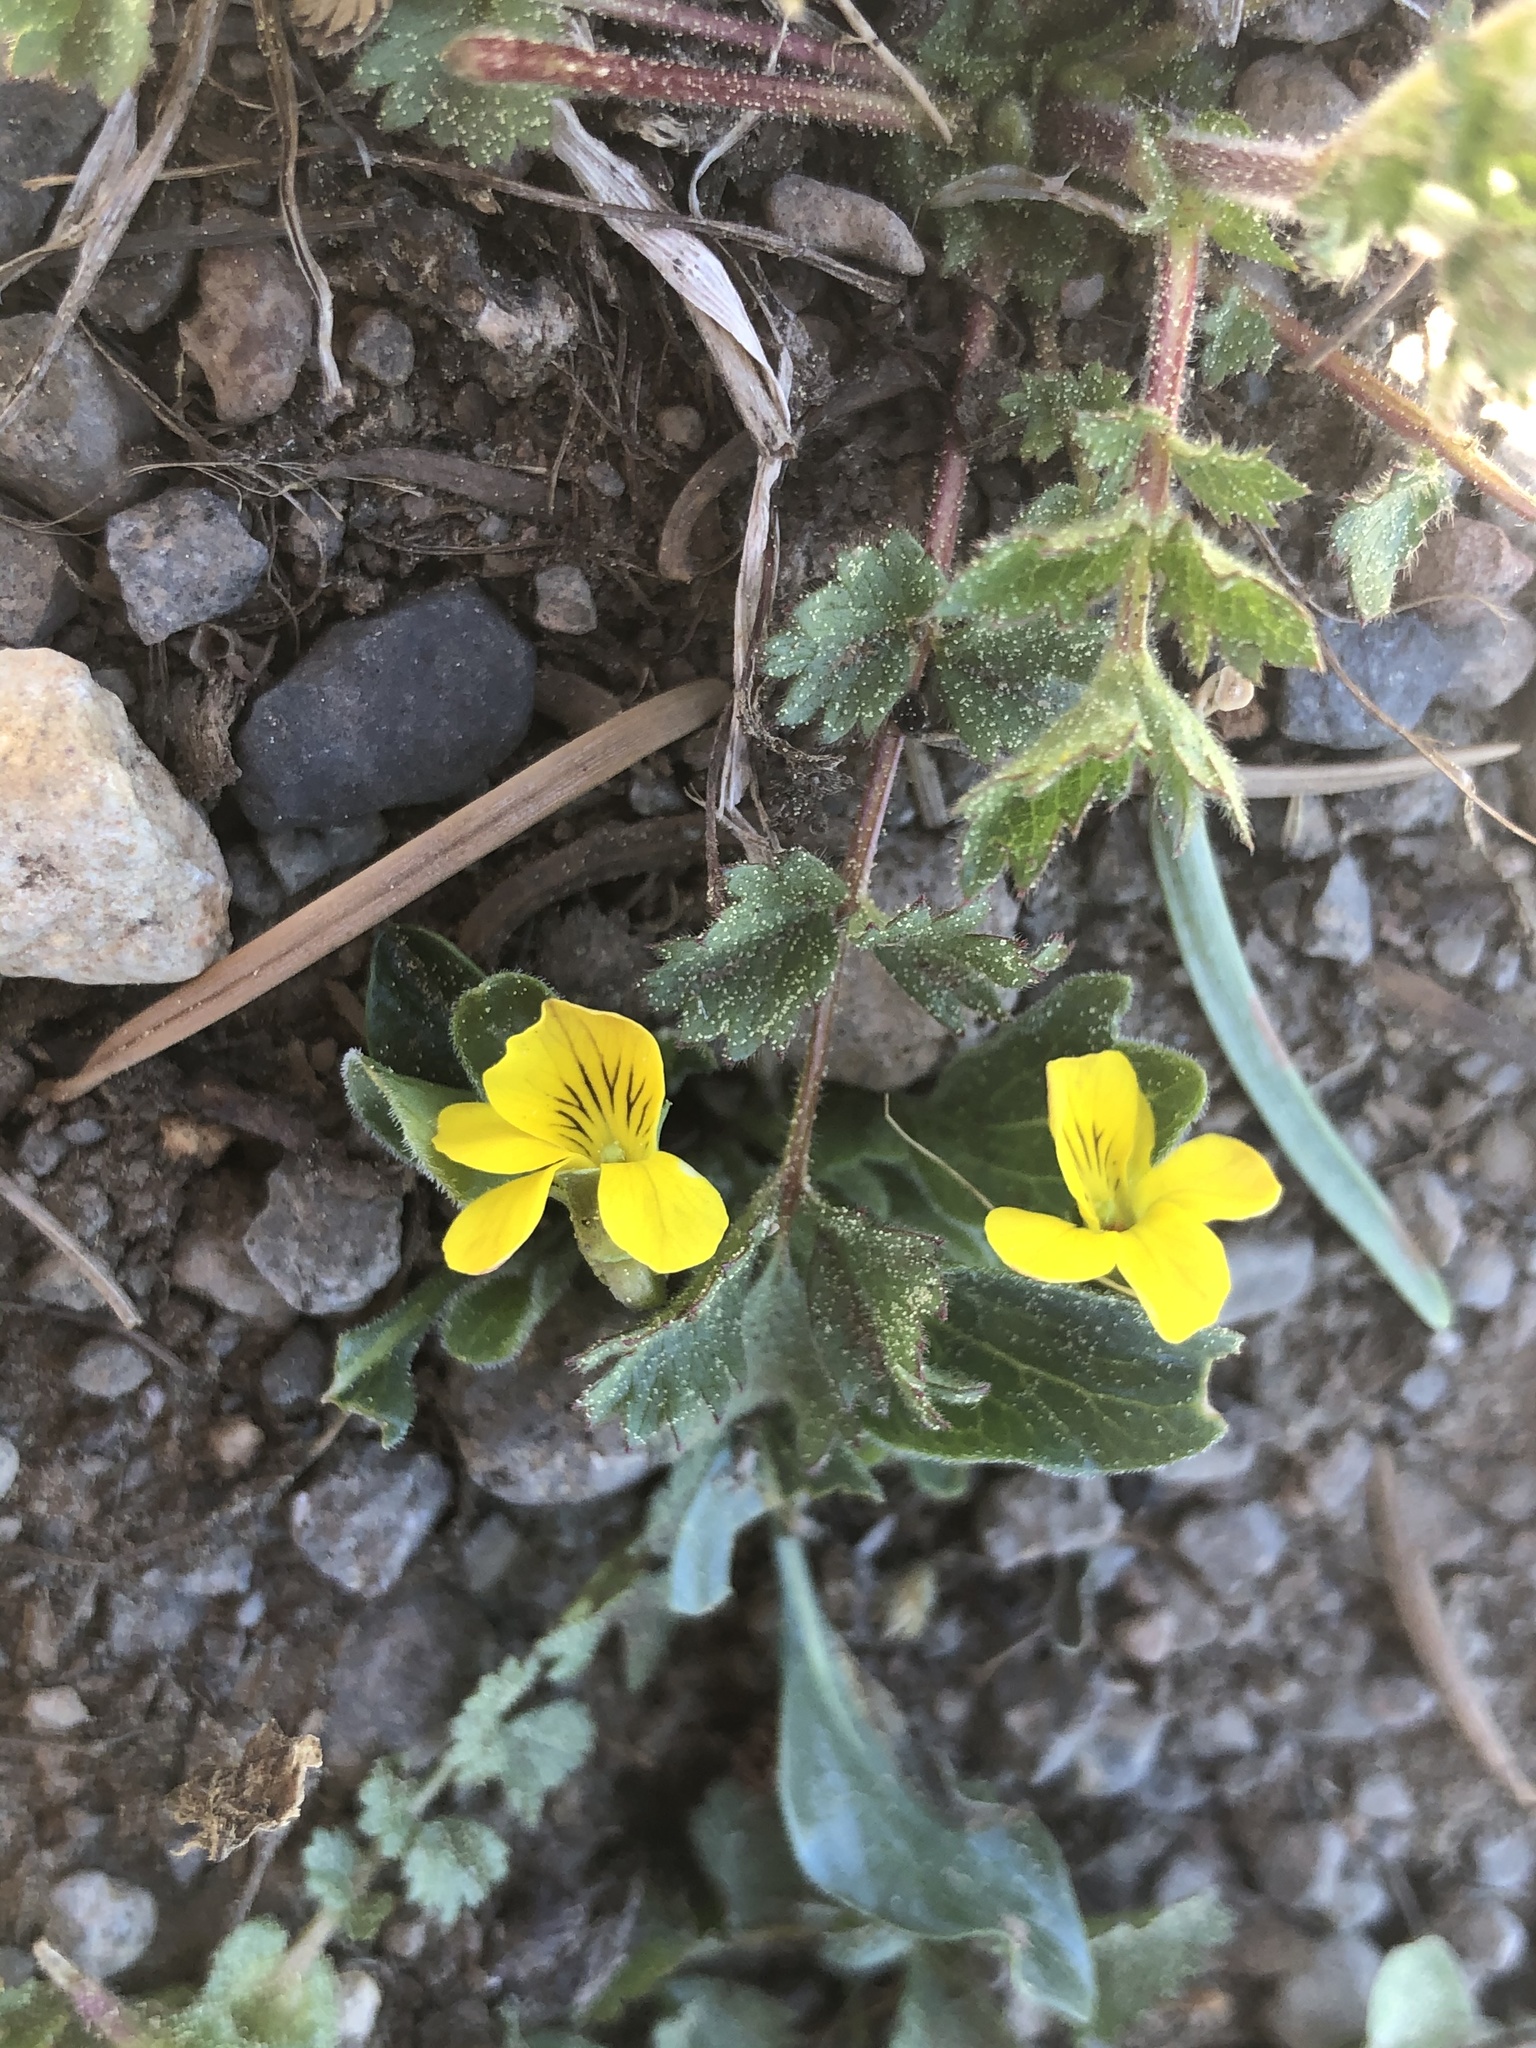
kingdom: Plantae
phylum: Tracheophyta
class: Magnoliopsida
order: Malpighiales
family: Violaceae
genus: Viola
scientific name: Viola purpurea
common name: Pine violet
